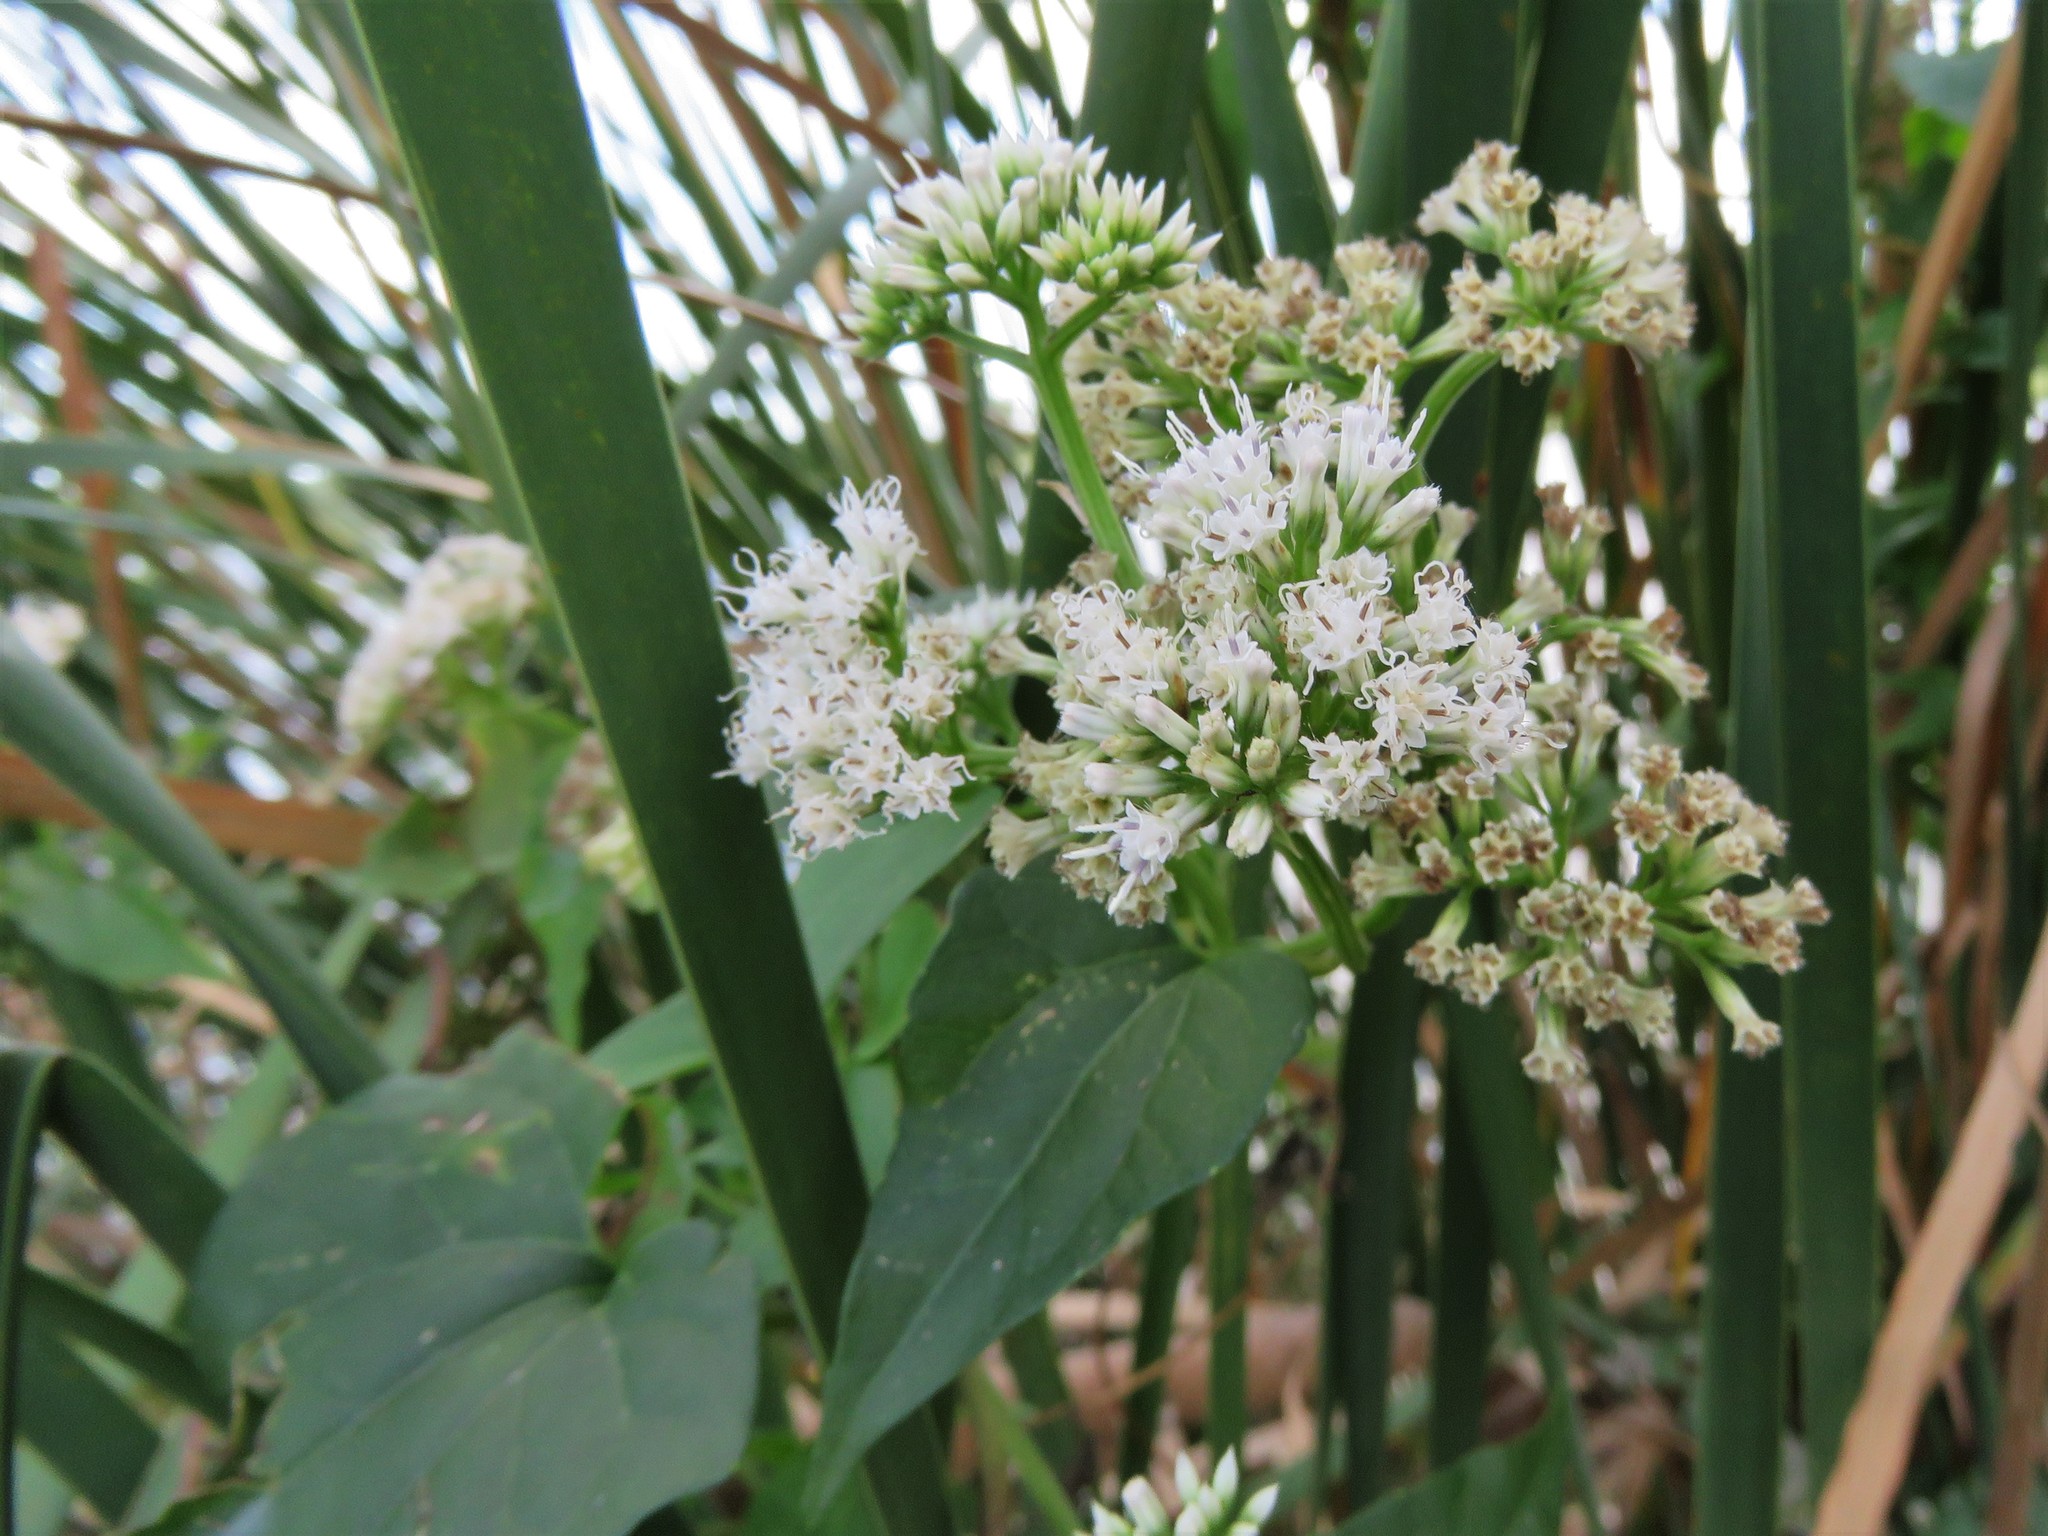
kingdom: Plantae
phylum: Tracheophyta
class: Magnoliopsida
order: Asterales
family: Asteraceae
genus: Mikania
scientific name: Mikania scandens
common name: Climbing hempvine
